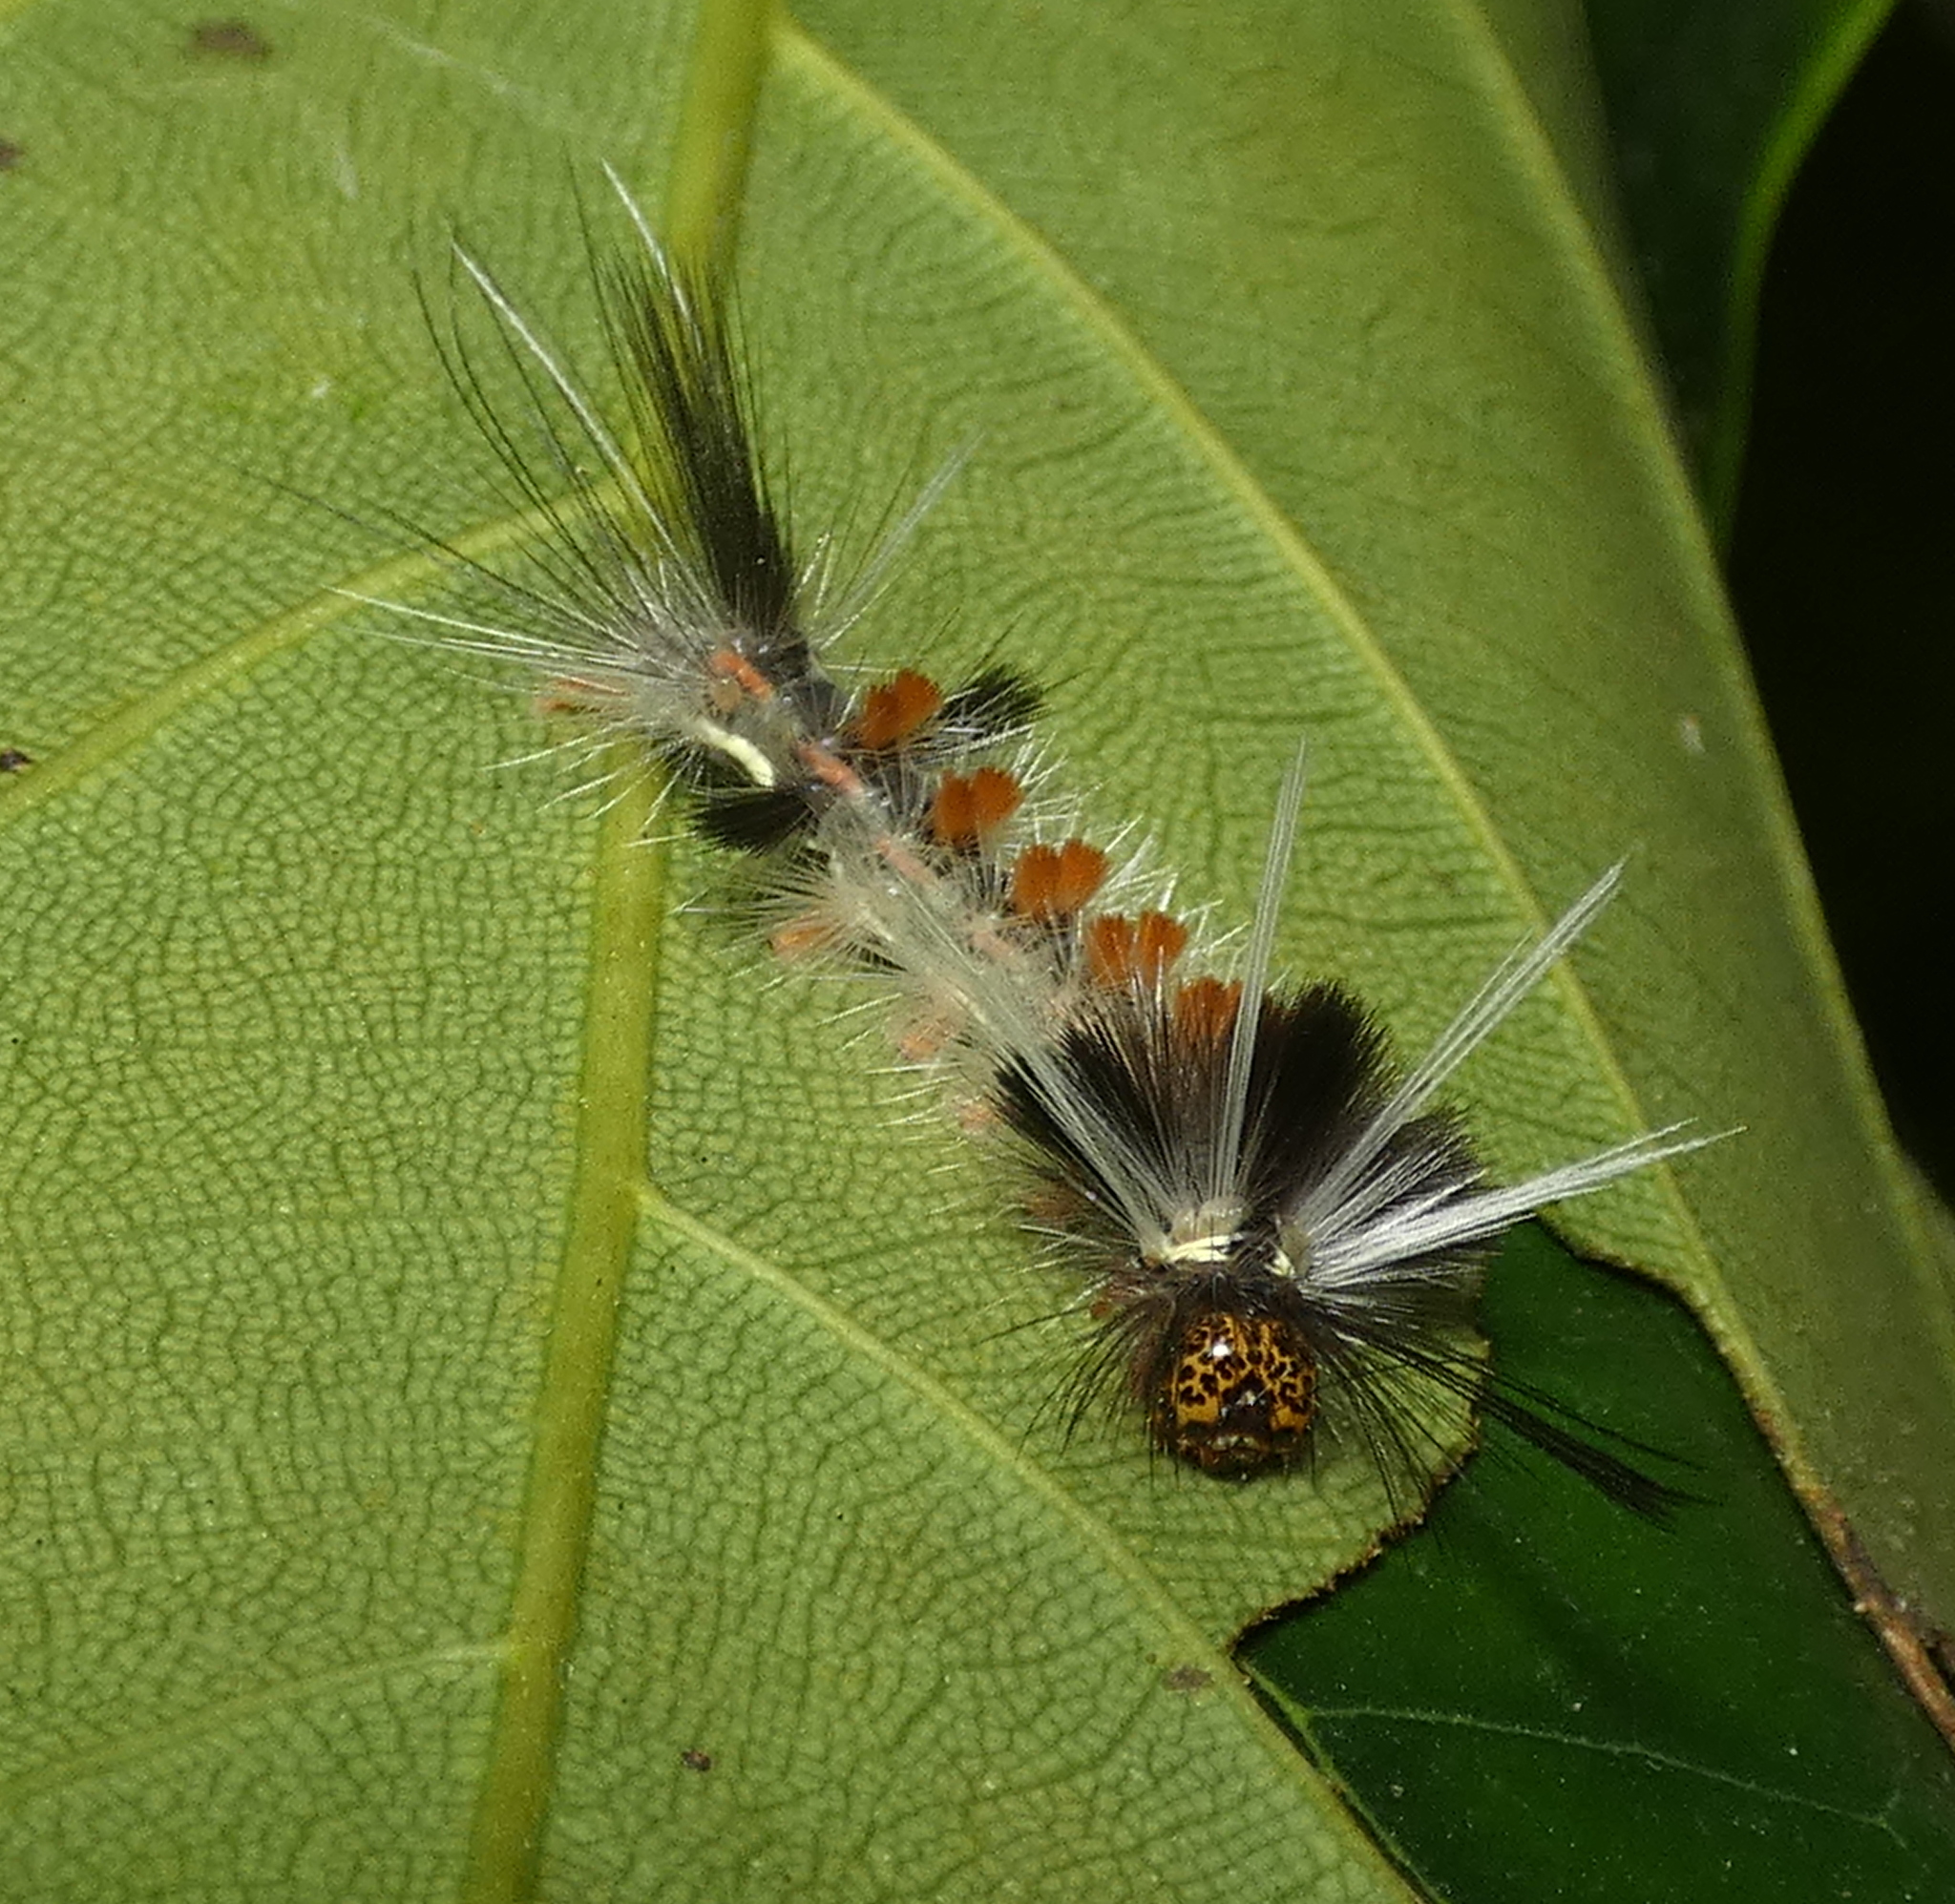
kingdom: Animalia
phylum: Arthropoda
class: Insecta
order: Lepidoptera
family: Erebidae
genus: Carales
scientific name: Carales astur
